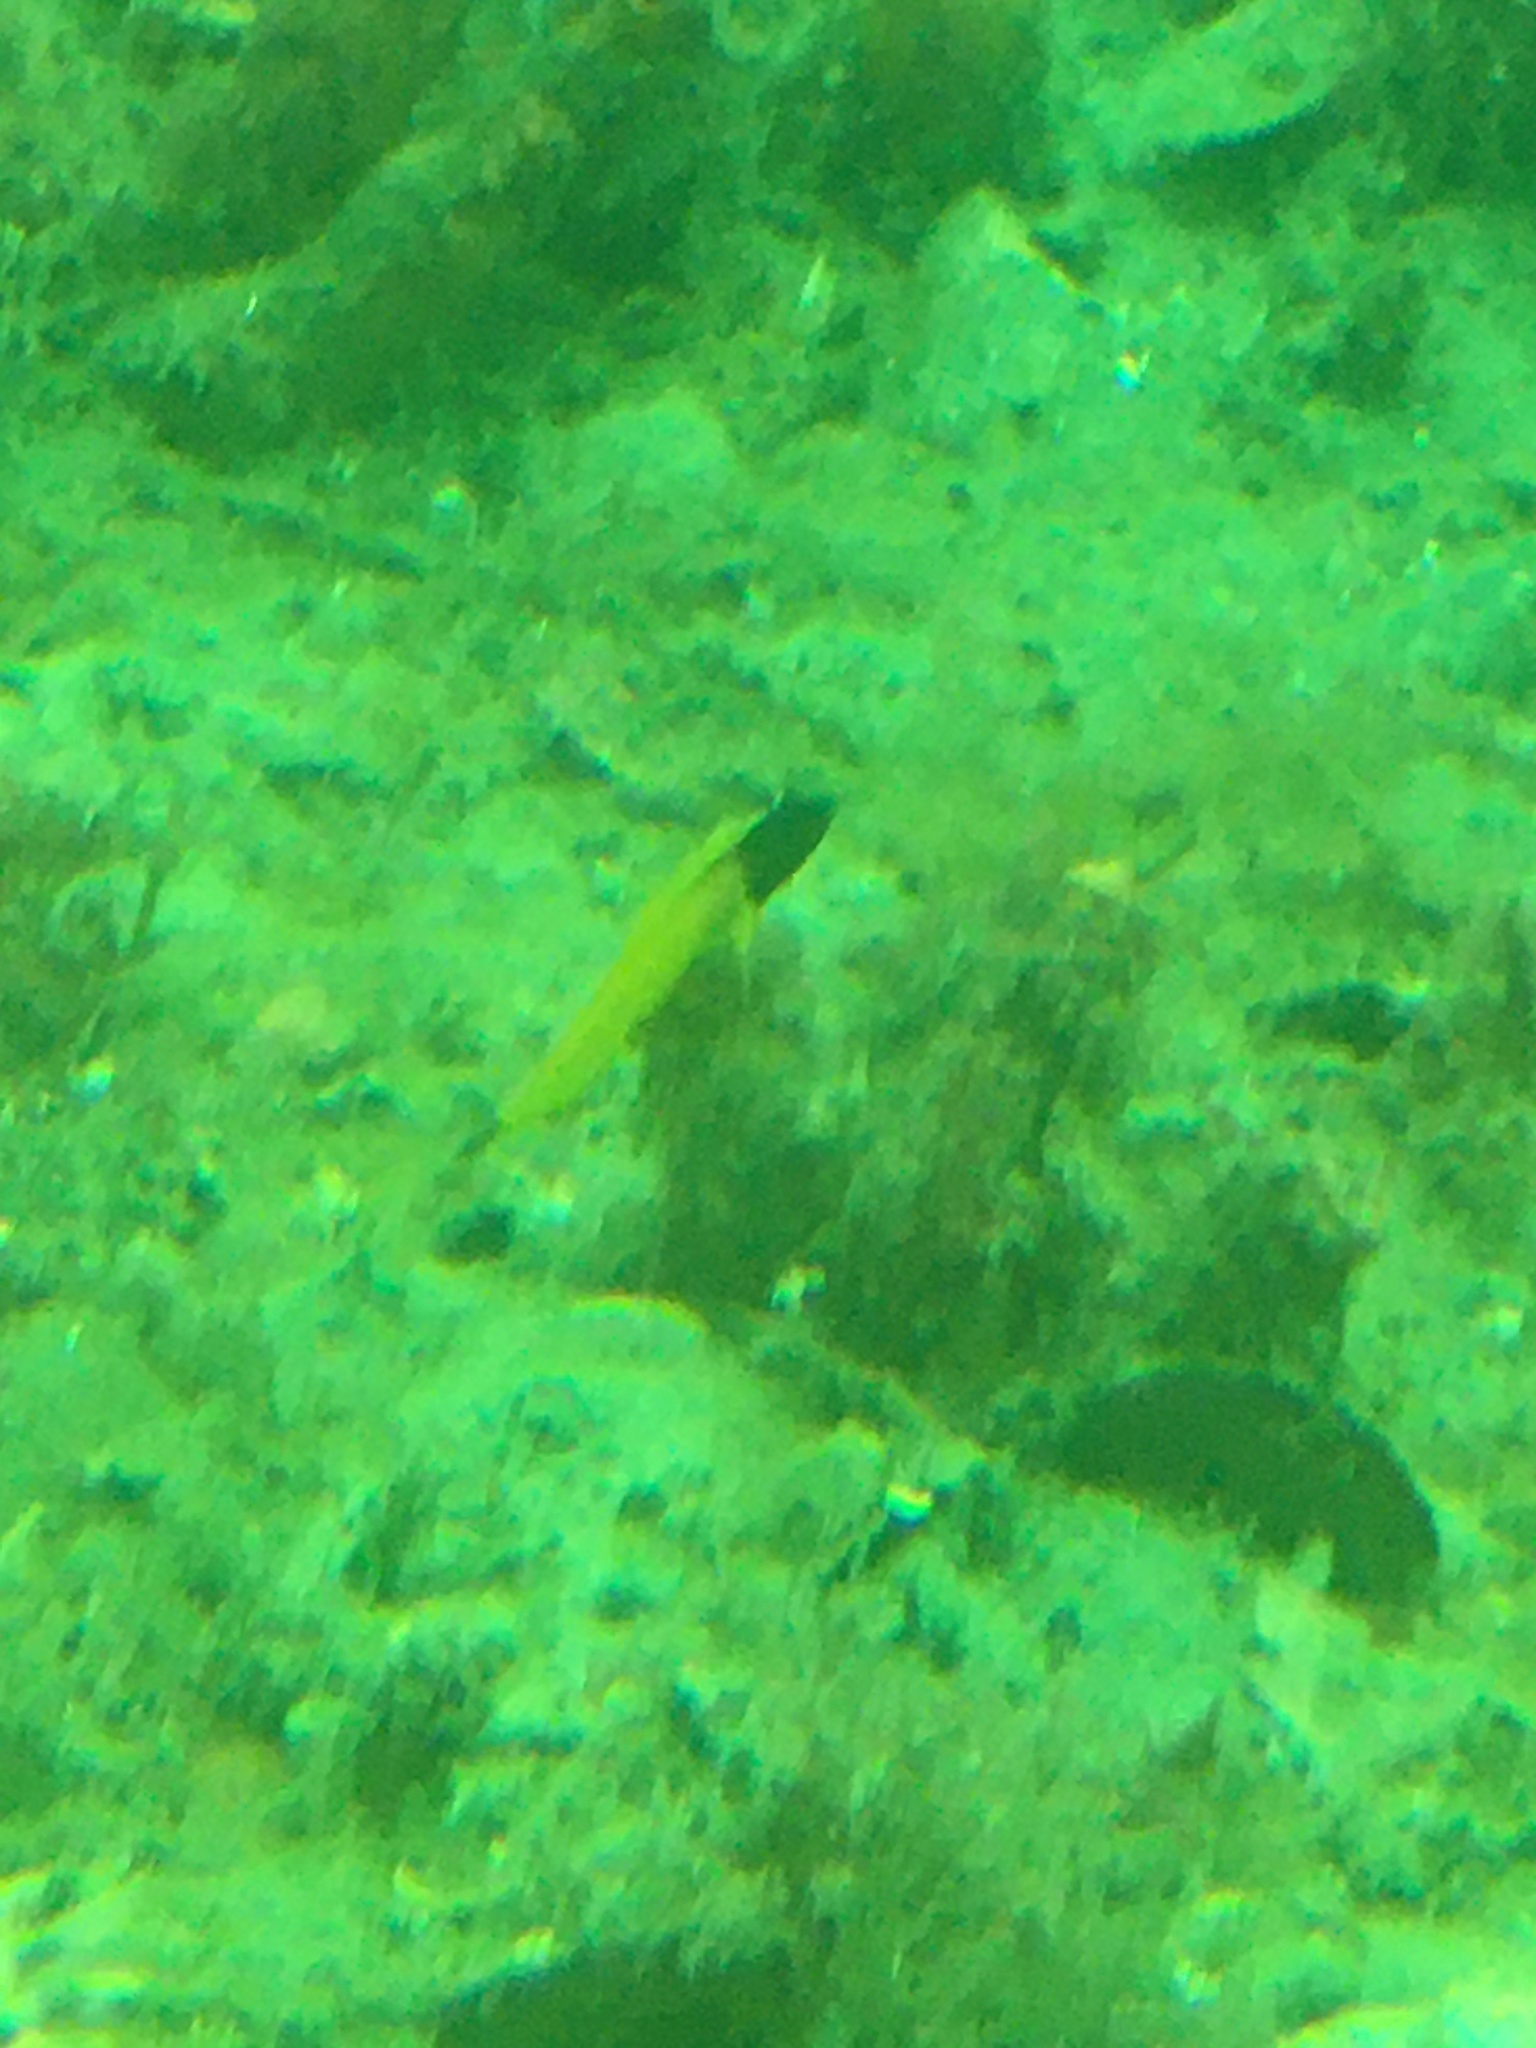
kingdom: Animalia
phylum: Chordata
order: Perciformes
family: Tripterygiidae
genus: Forsterygion
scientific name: Forsterygion flavonigrum
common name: Yellow-and-black triplefin
